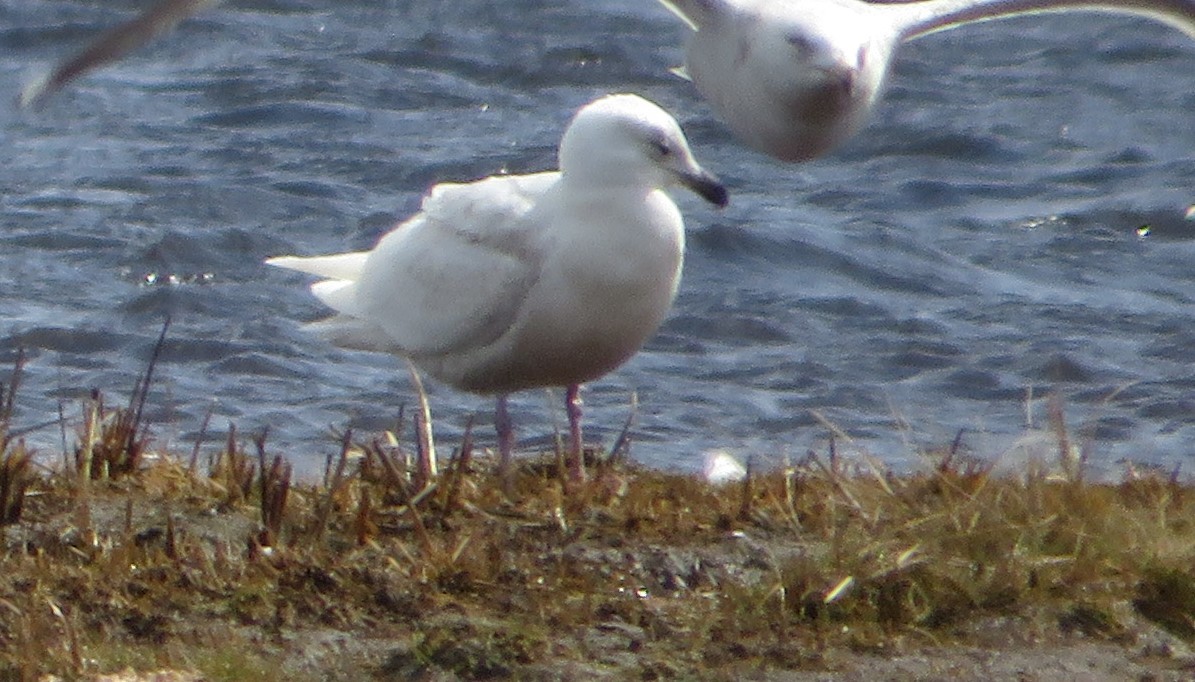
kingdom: Animalia
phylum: Chordata
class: Aves
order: Charadriiformes
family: Laridae
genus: Larus
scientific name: Larus glaucoides
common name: Iceland gull
